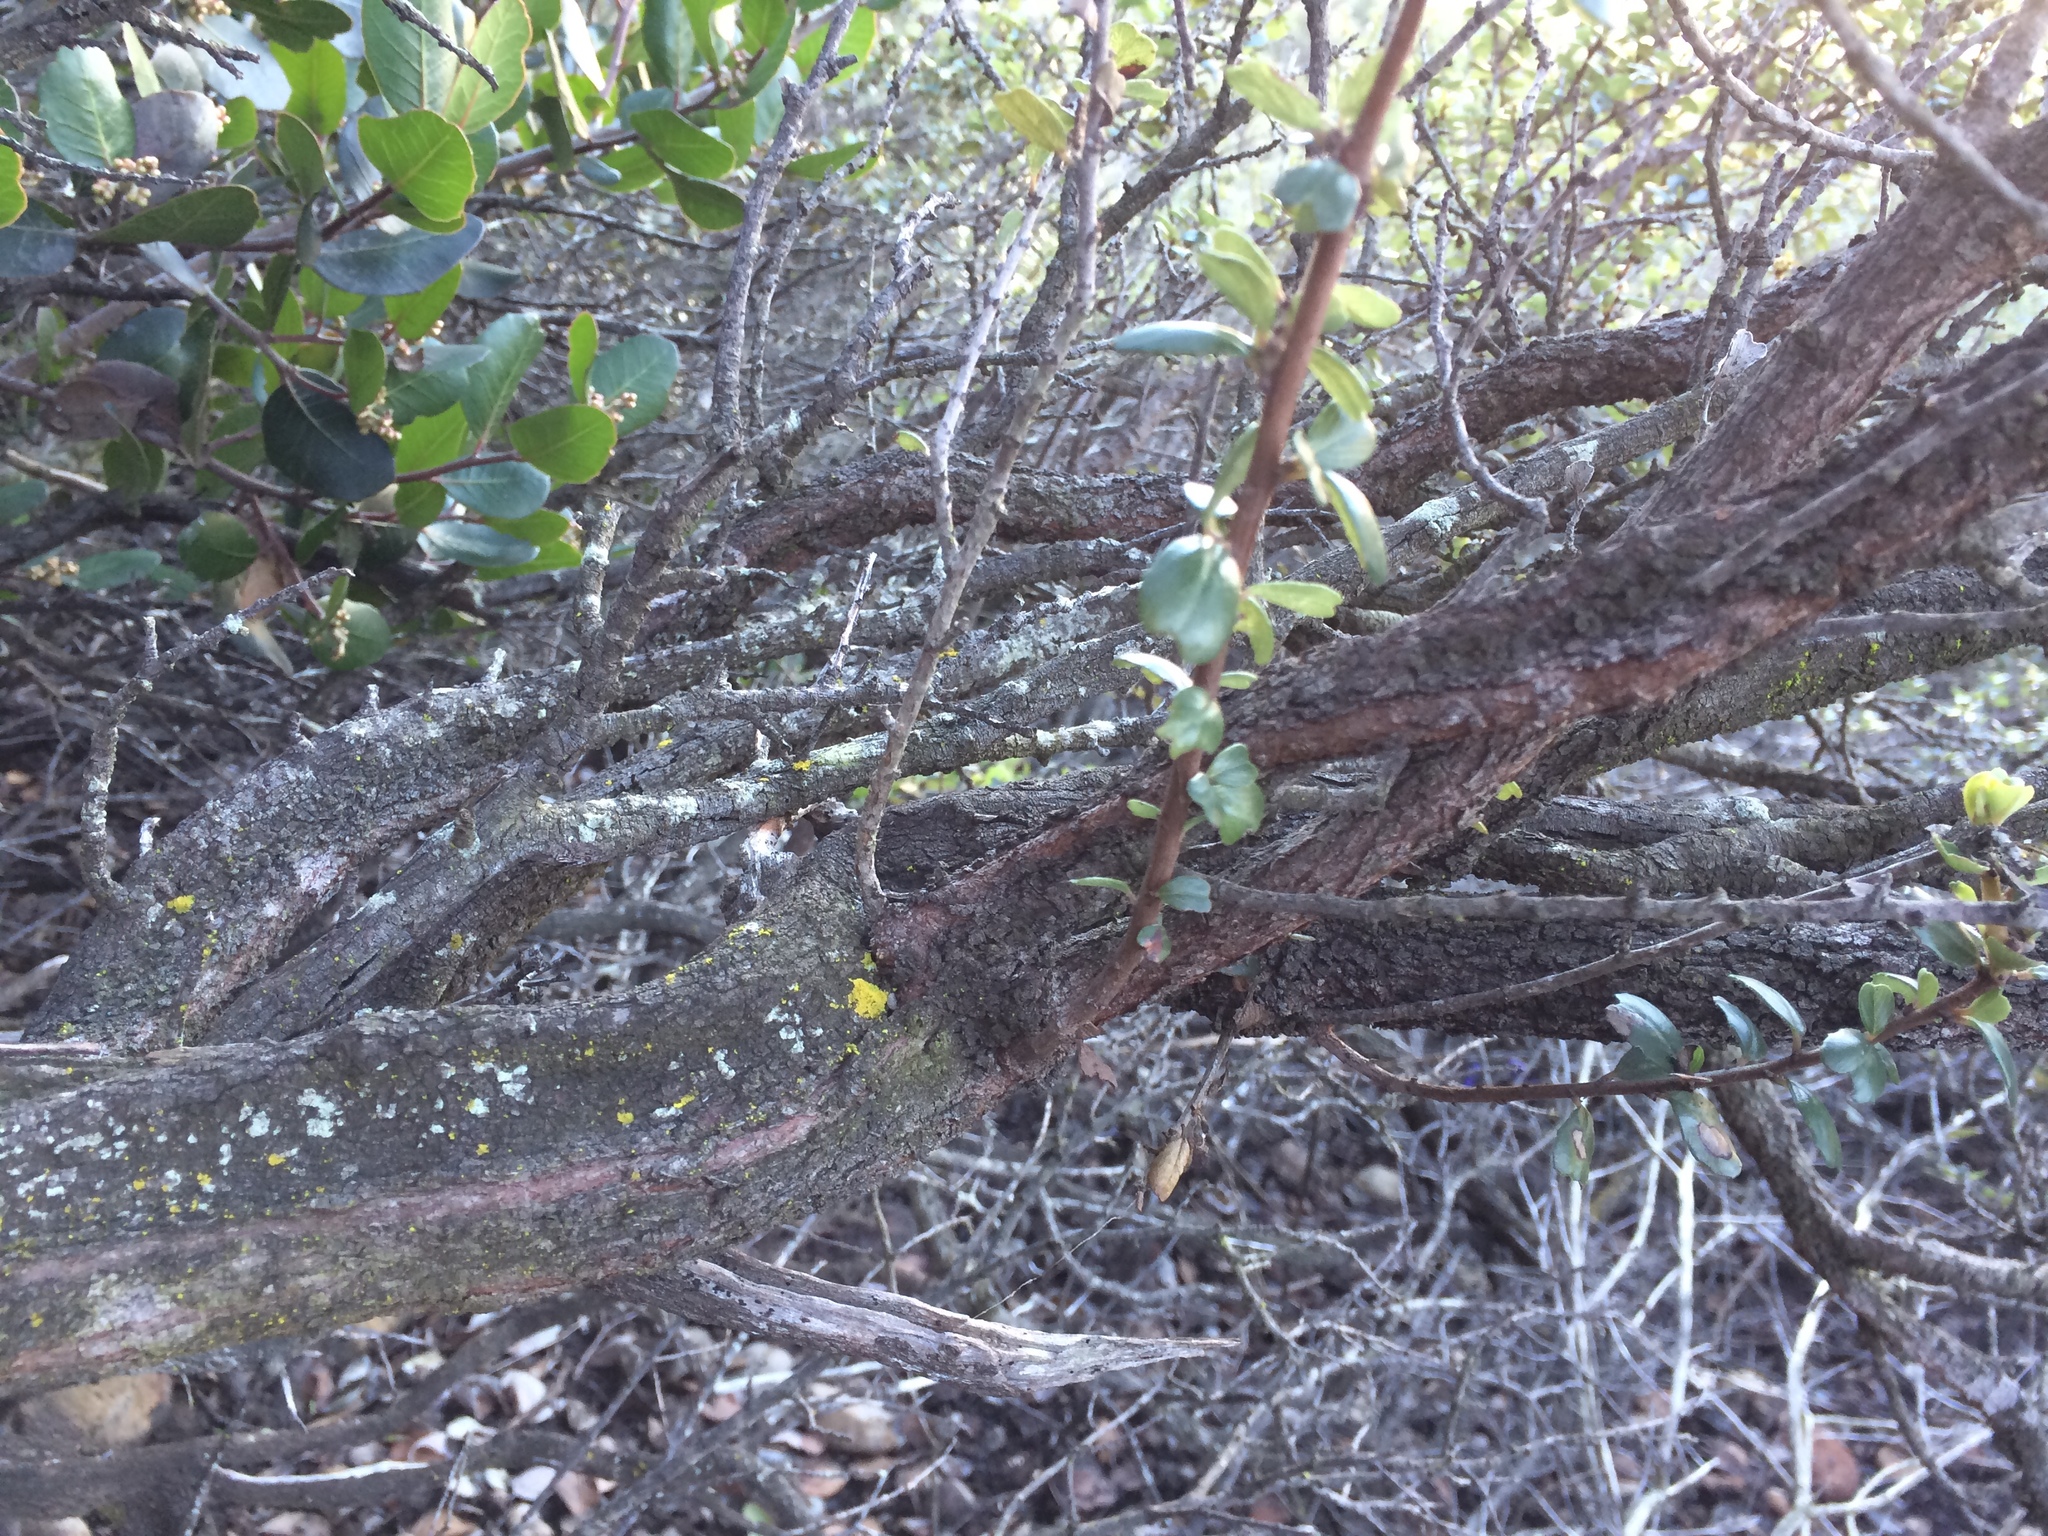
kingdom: Plantae
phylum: Tracheophyta
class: Magnoliopsida
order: Rosales
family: Rhamnaceae
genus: Ceanothus
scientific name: Ceanothus verrucosus
